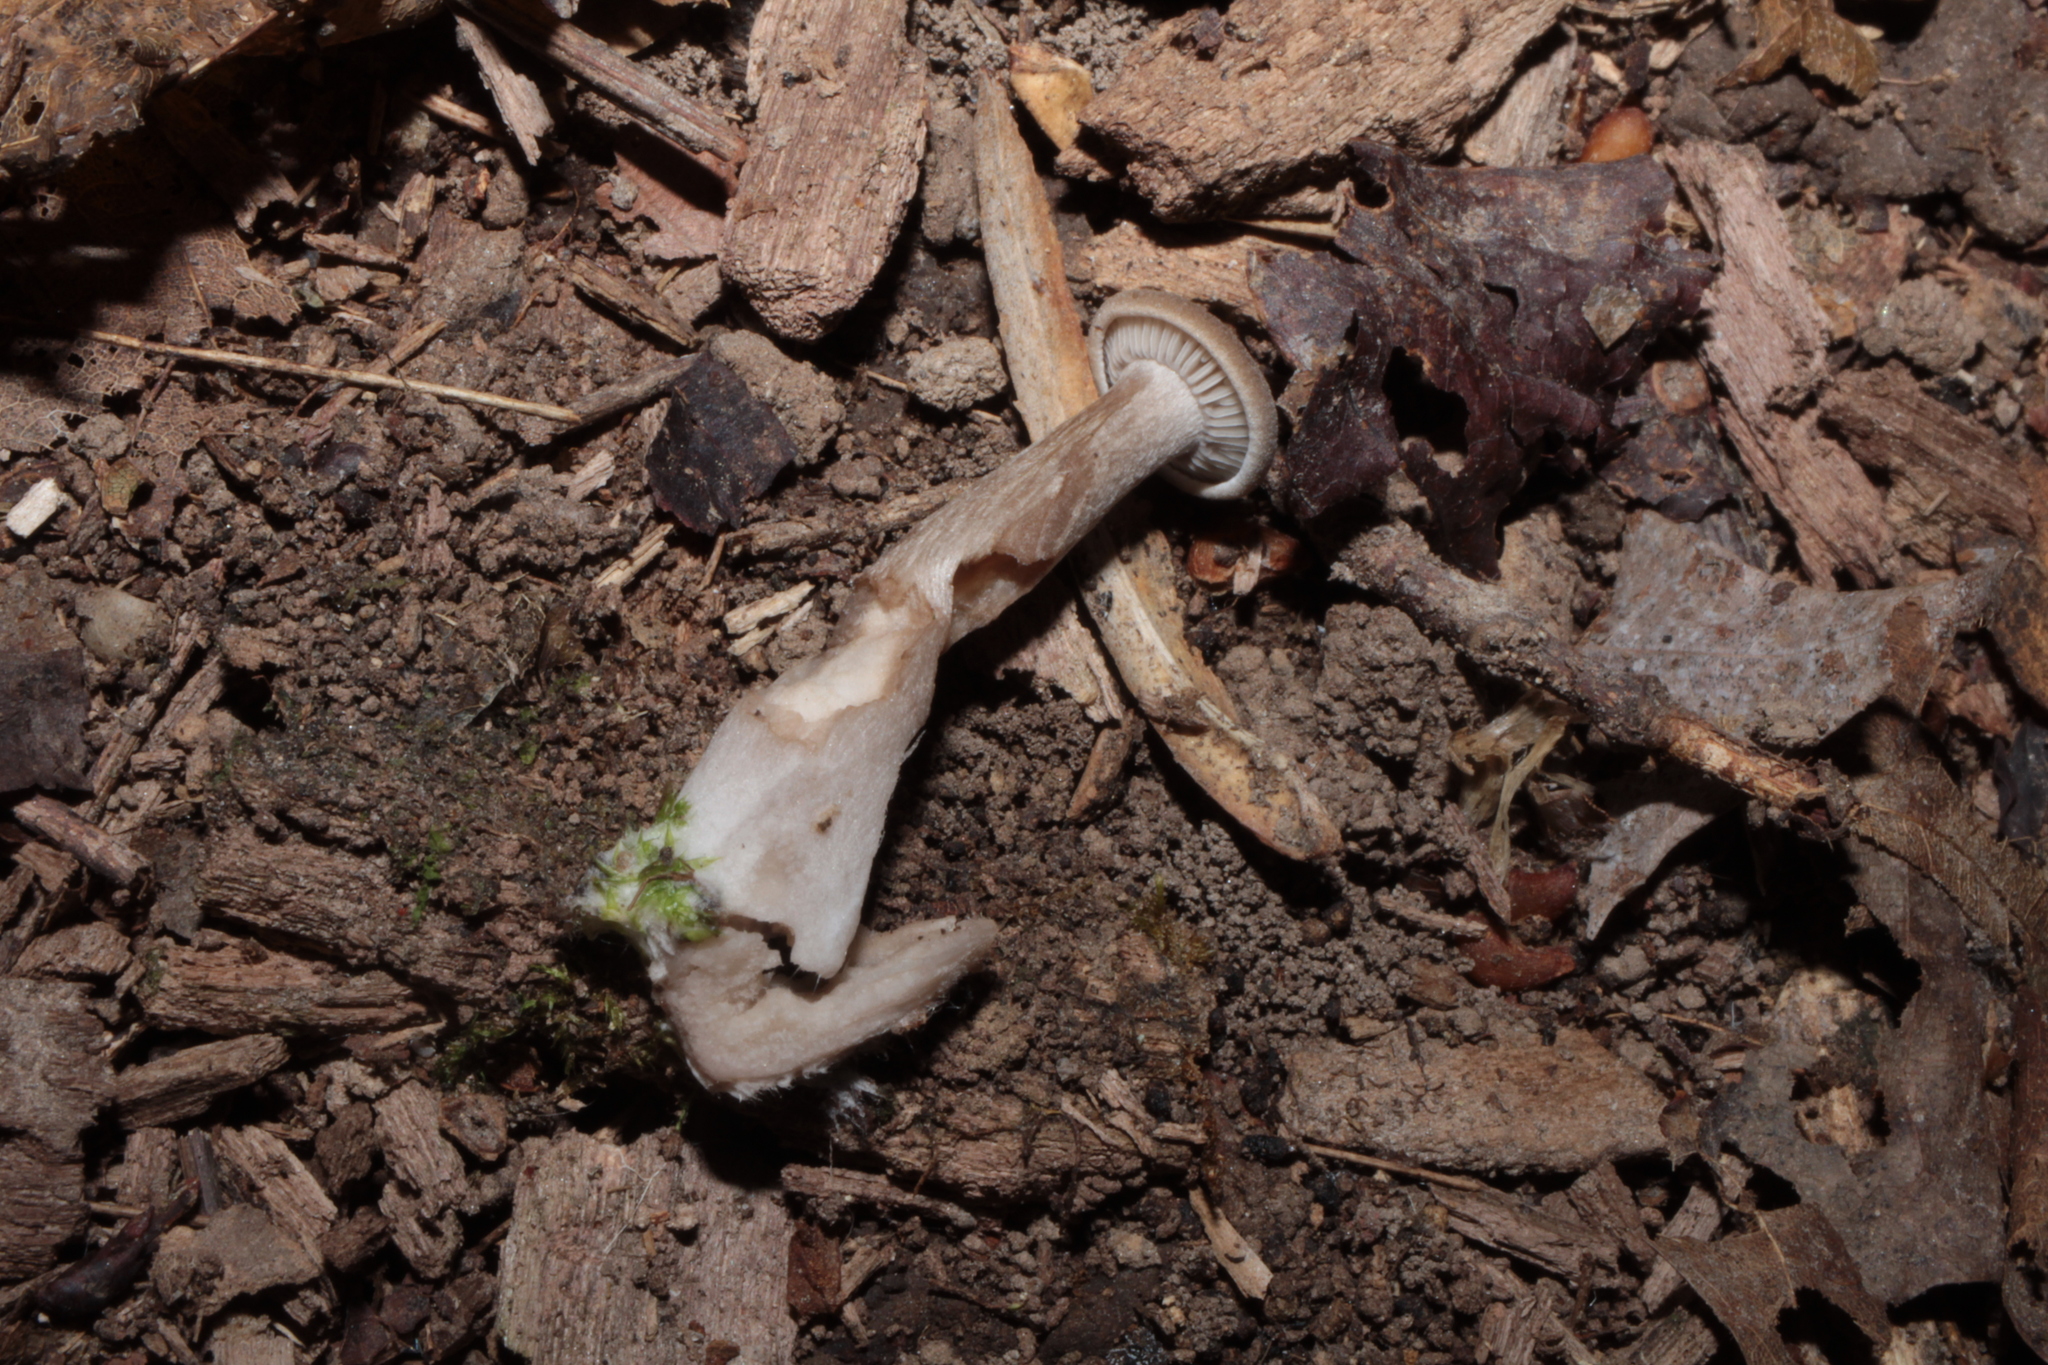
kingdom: Fungi
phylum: Basidiomycota
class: Agaricomycetes
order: Agaricales
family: Pseudoclitocybaceae
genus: Pseudoclitocybe
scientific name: Pseudoclitocybe cyathiformis
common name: Goblet
